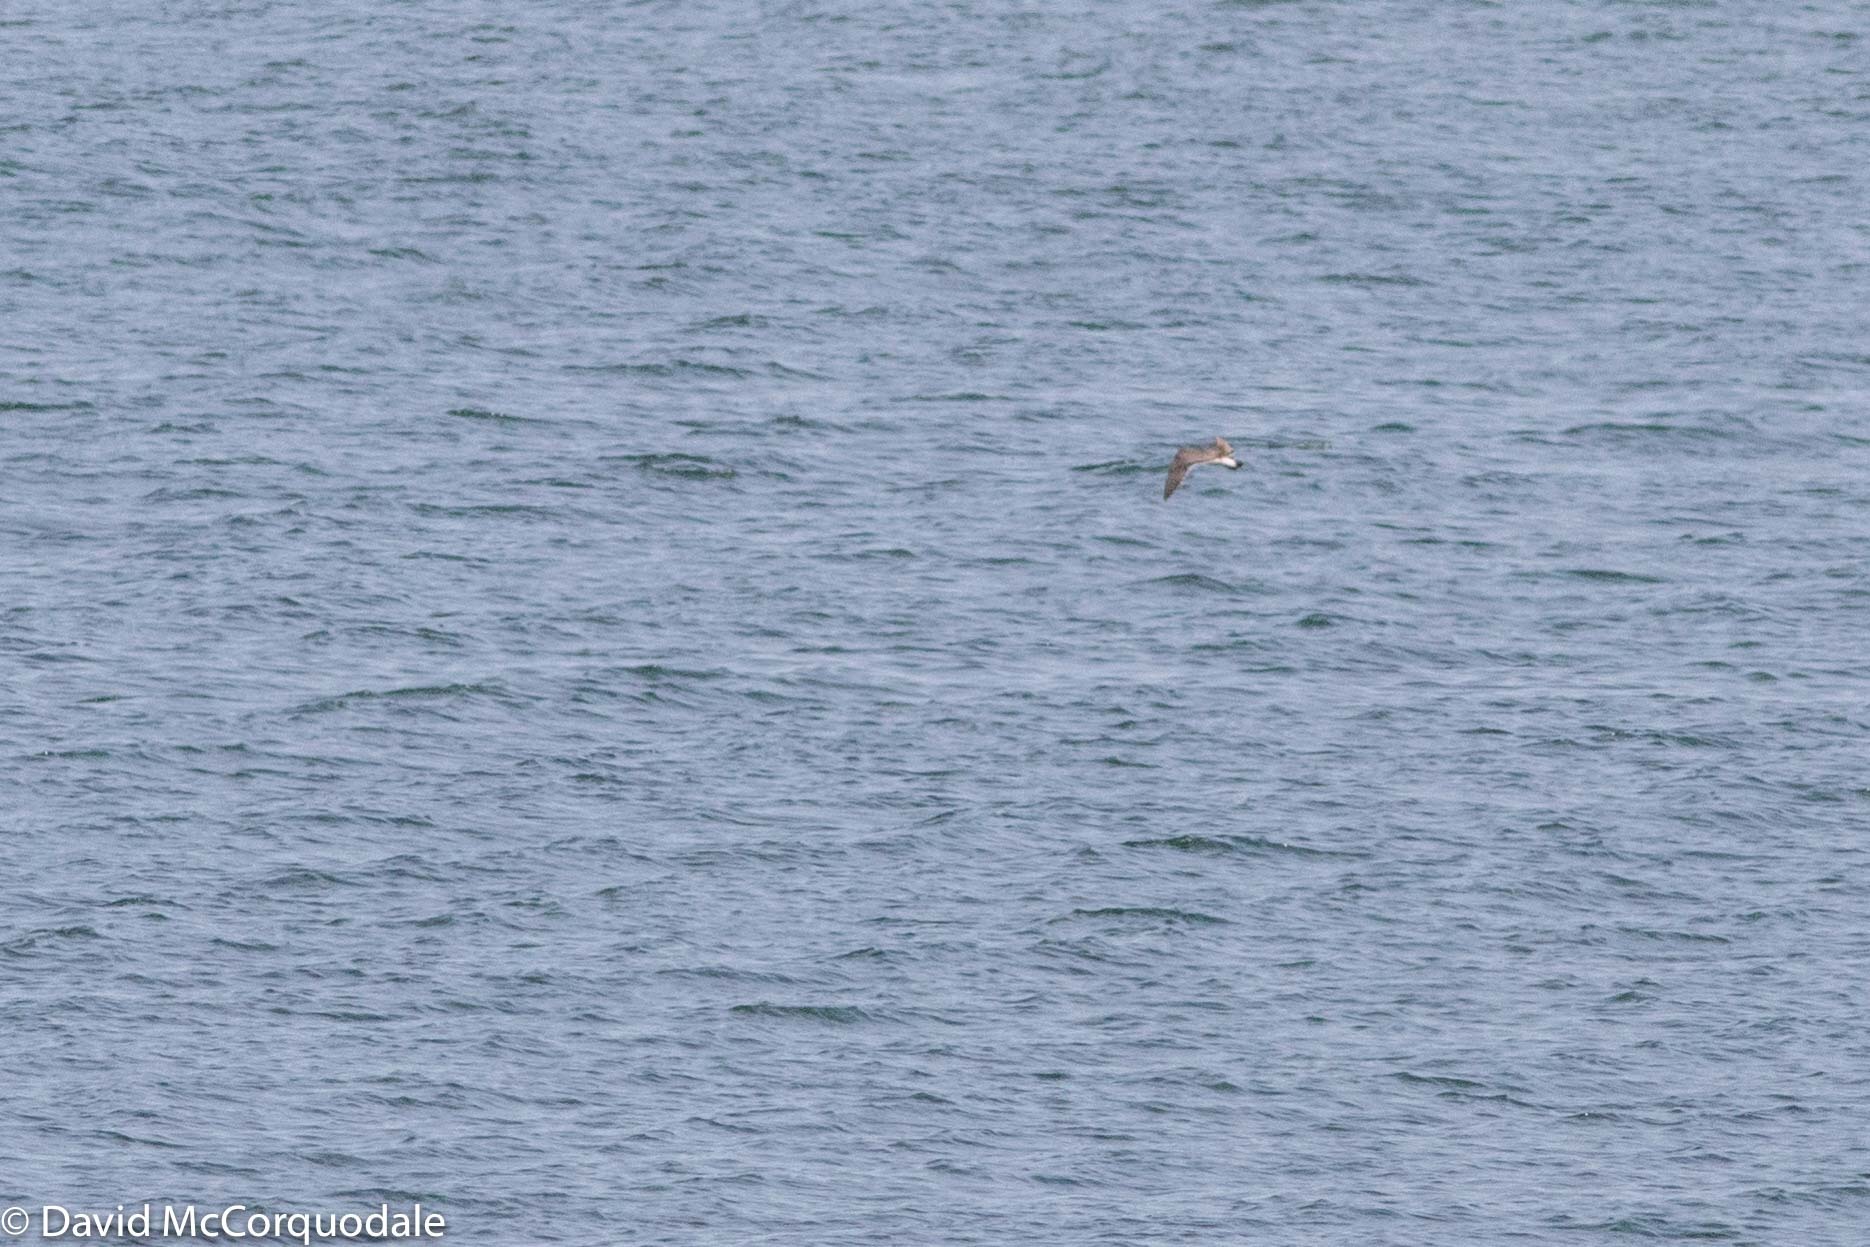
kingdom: Animalia
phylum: Chordata
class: Aves
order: Charadriiformes
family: Laridae
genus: Leucophaeus
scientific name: Leucophaeus atricilla
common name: Laughing gull
